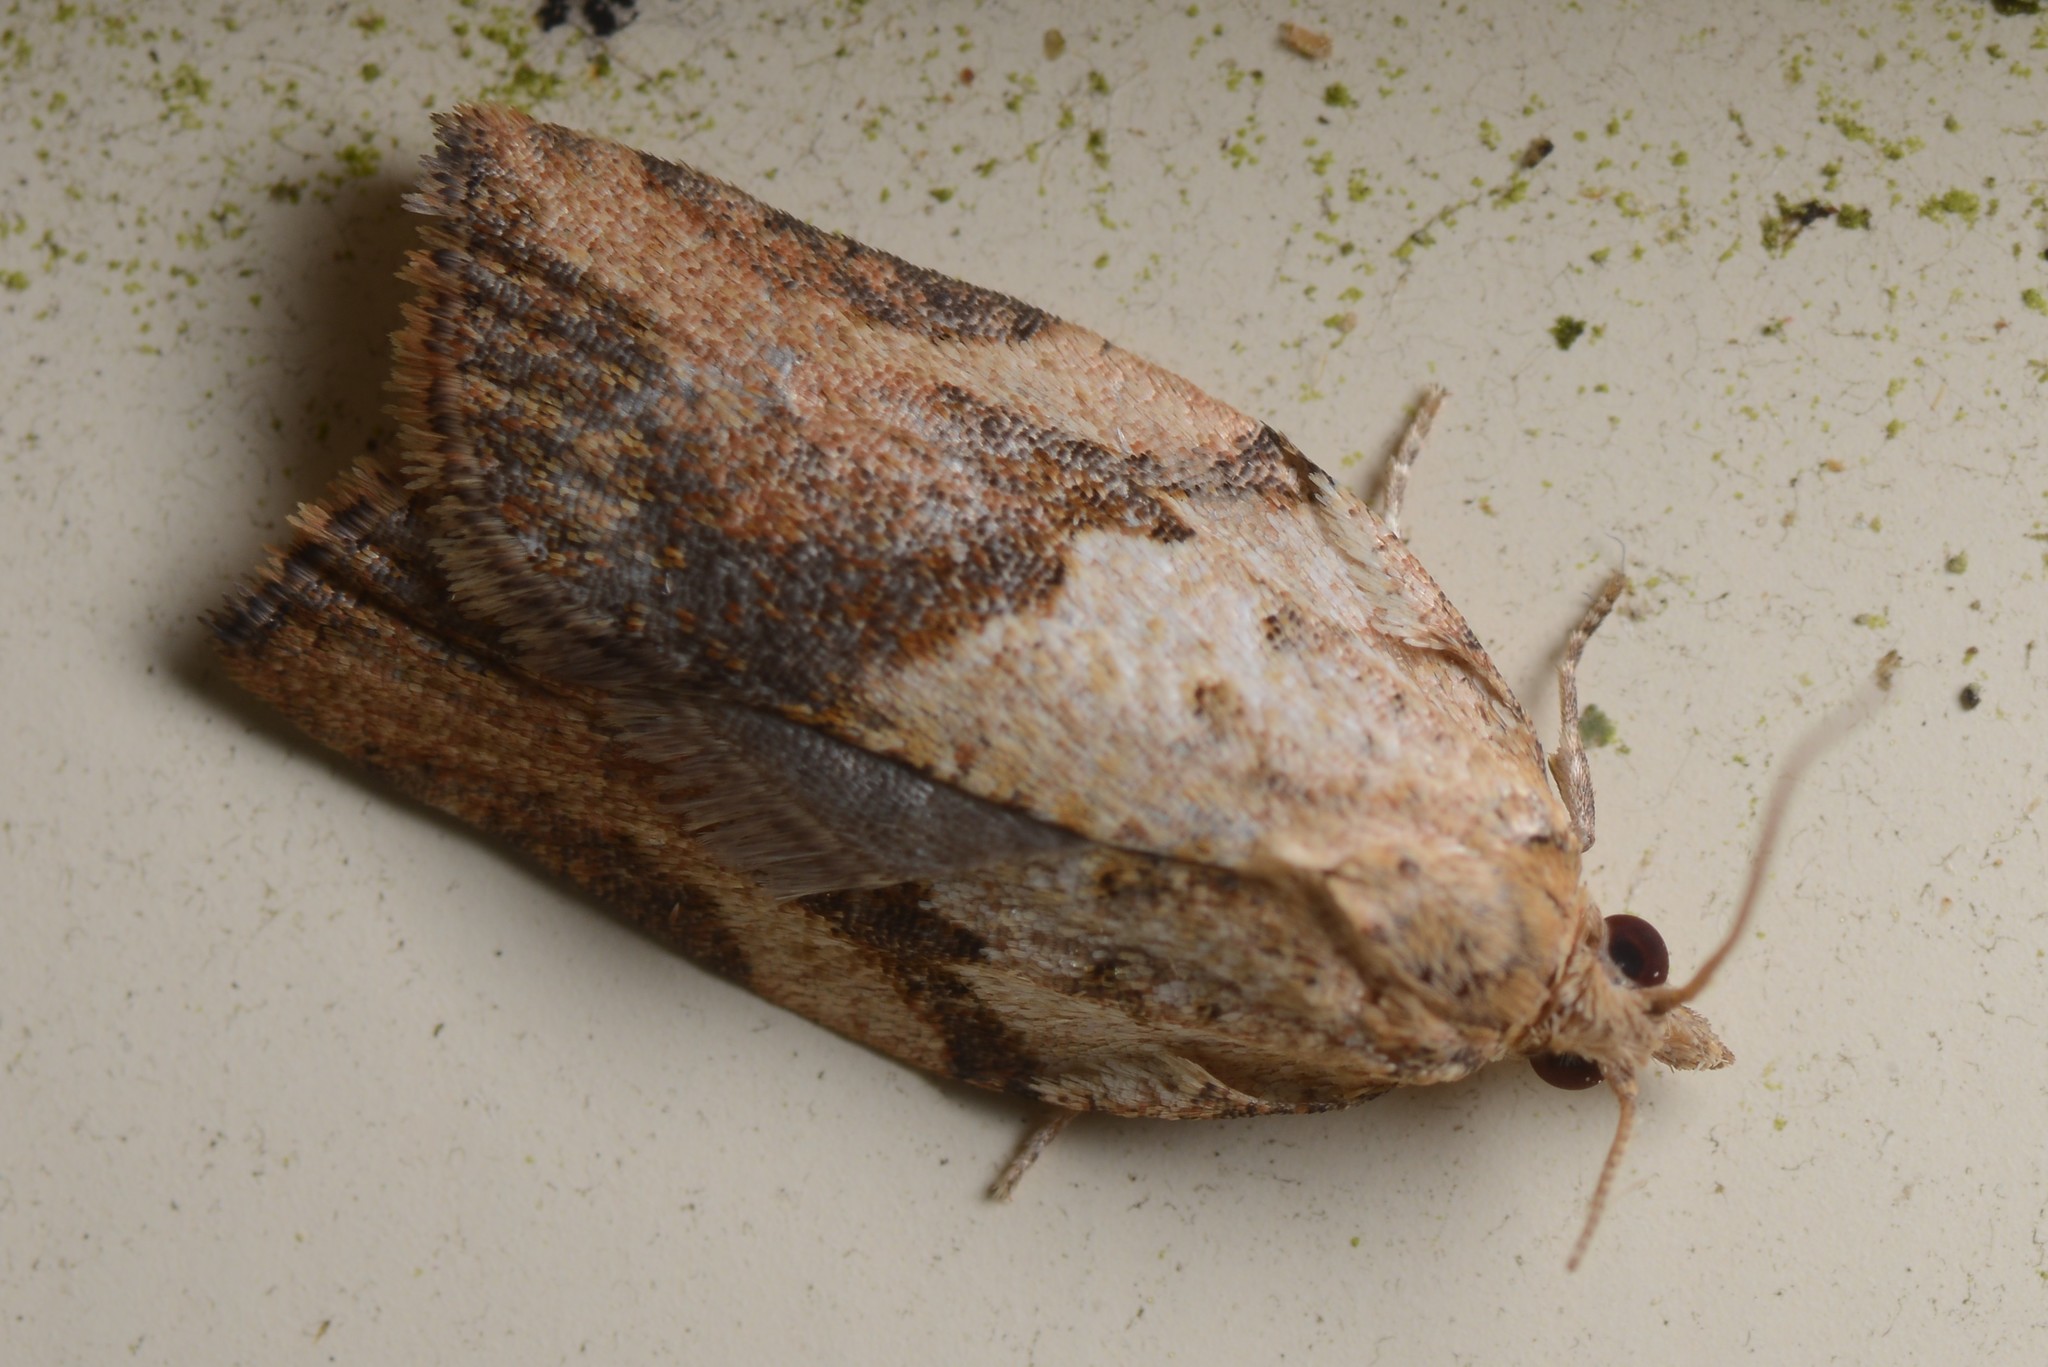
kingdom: Animalia
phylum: Arthropoda
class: Insecta
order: Lepidoptera
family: Tortricidae
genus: Epiphyas
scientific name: Epiphyas postvittana
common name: Light brown apple moth
